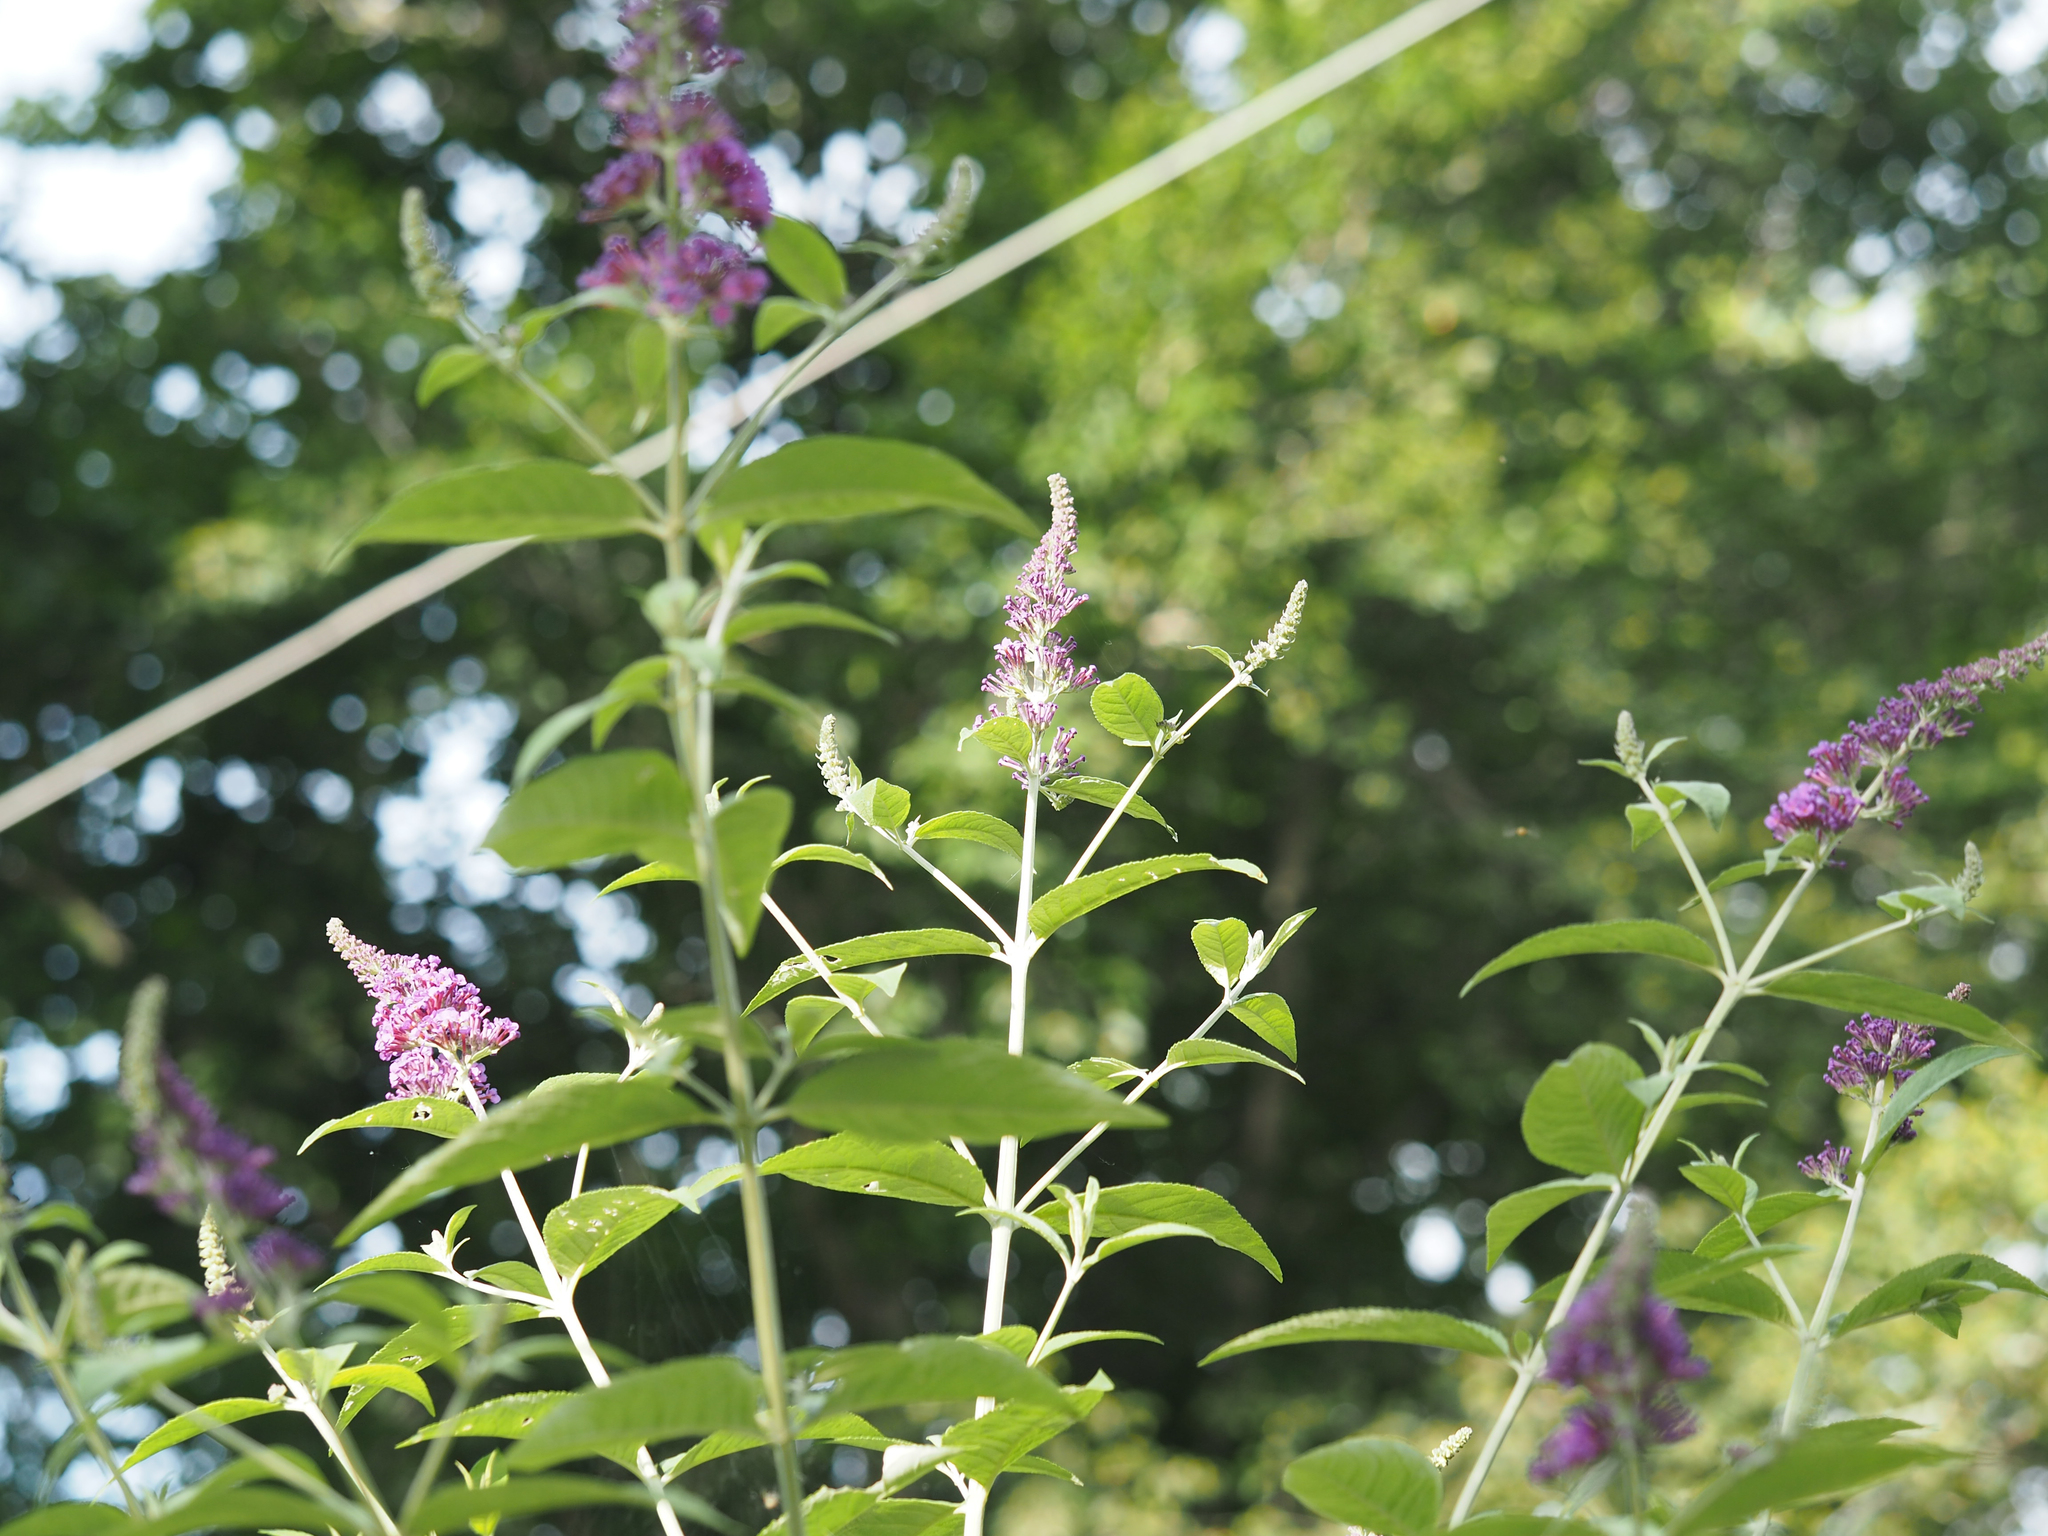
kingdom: Plantae
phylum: Tracheophyta
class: Magnoliopsida
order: Lamiales
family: Scrophulariaceae
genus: Buddleja
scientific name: Buddleja davidii
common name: Butterfly-bush
